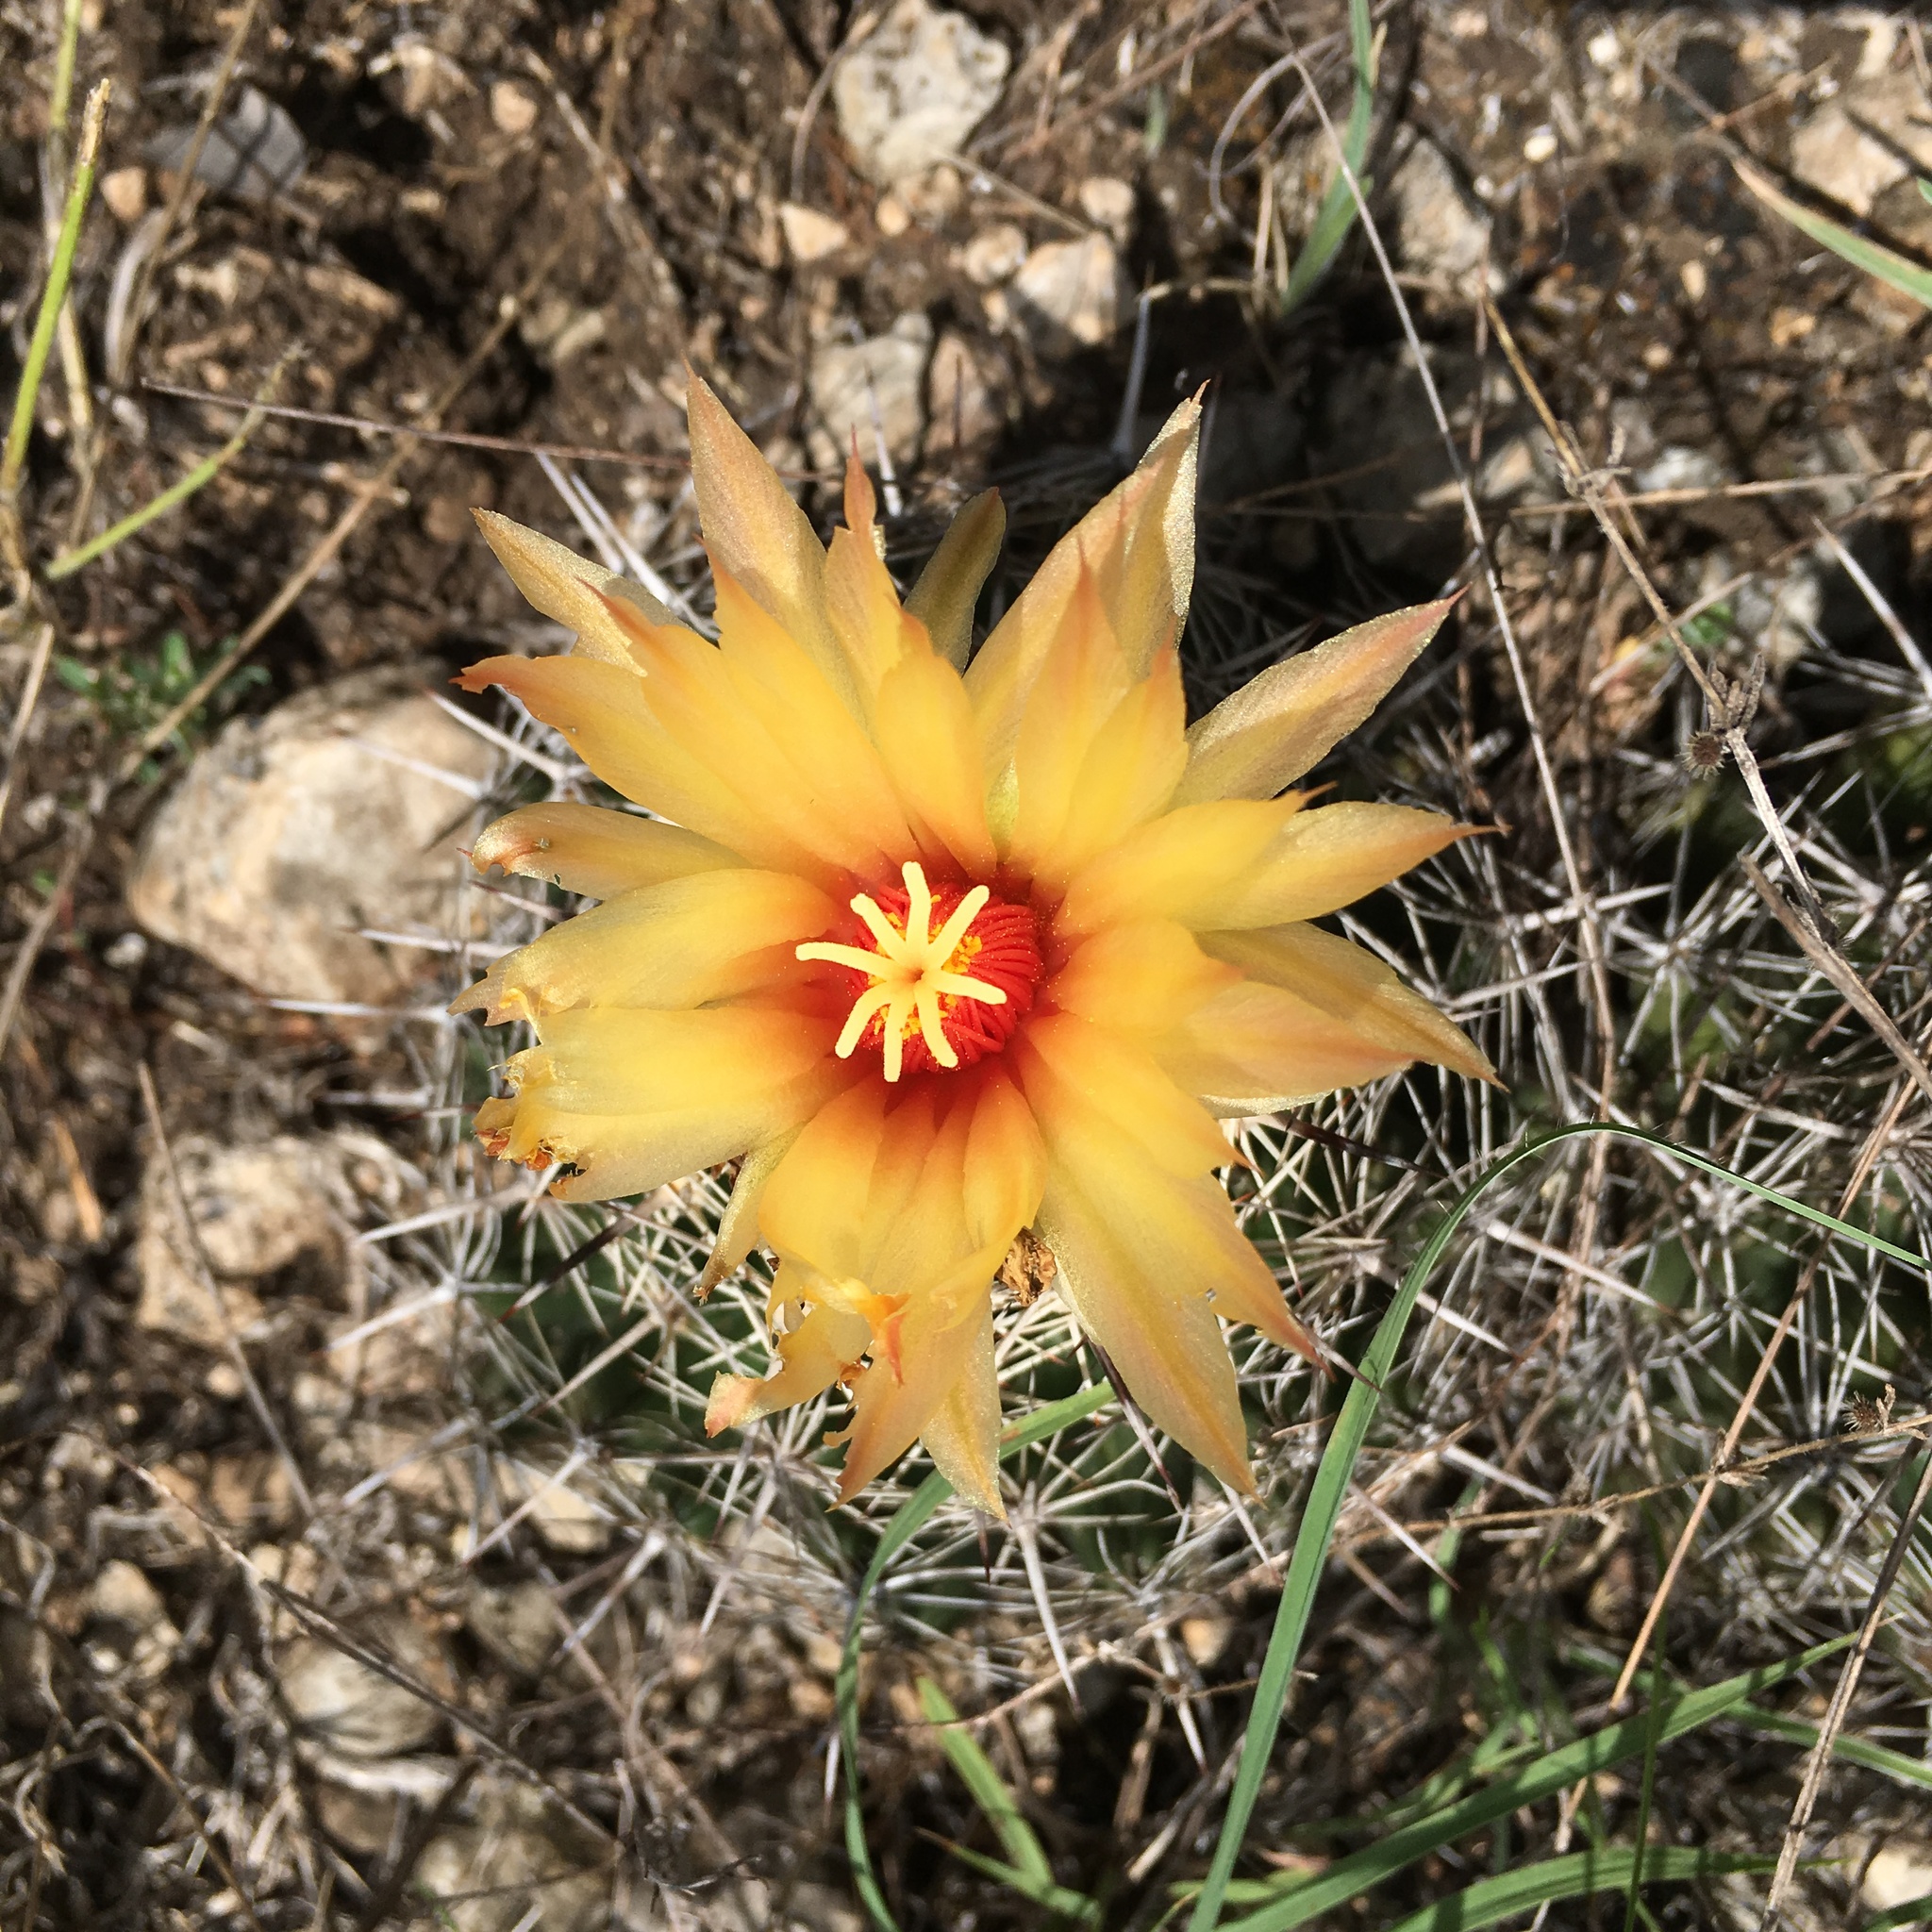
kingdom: Plantae
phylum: Tracheophyta
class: Magnoliopsida
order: Caryophyllales
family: Cactaceae
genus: Coryphantha
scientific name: Coryphantha sulcata
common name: Finger cactus
